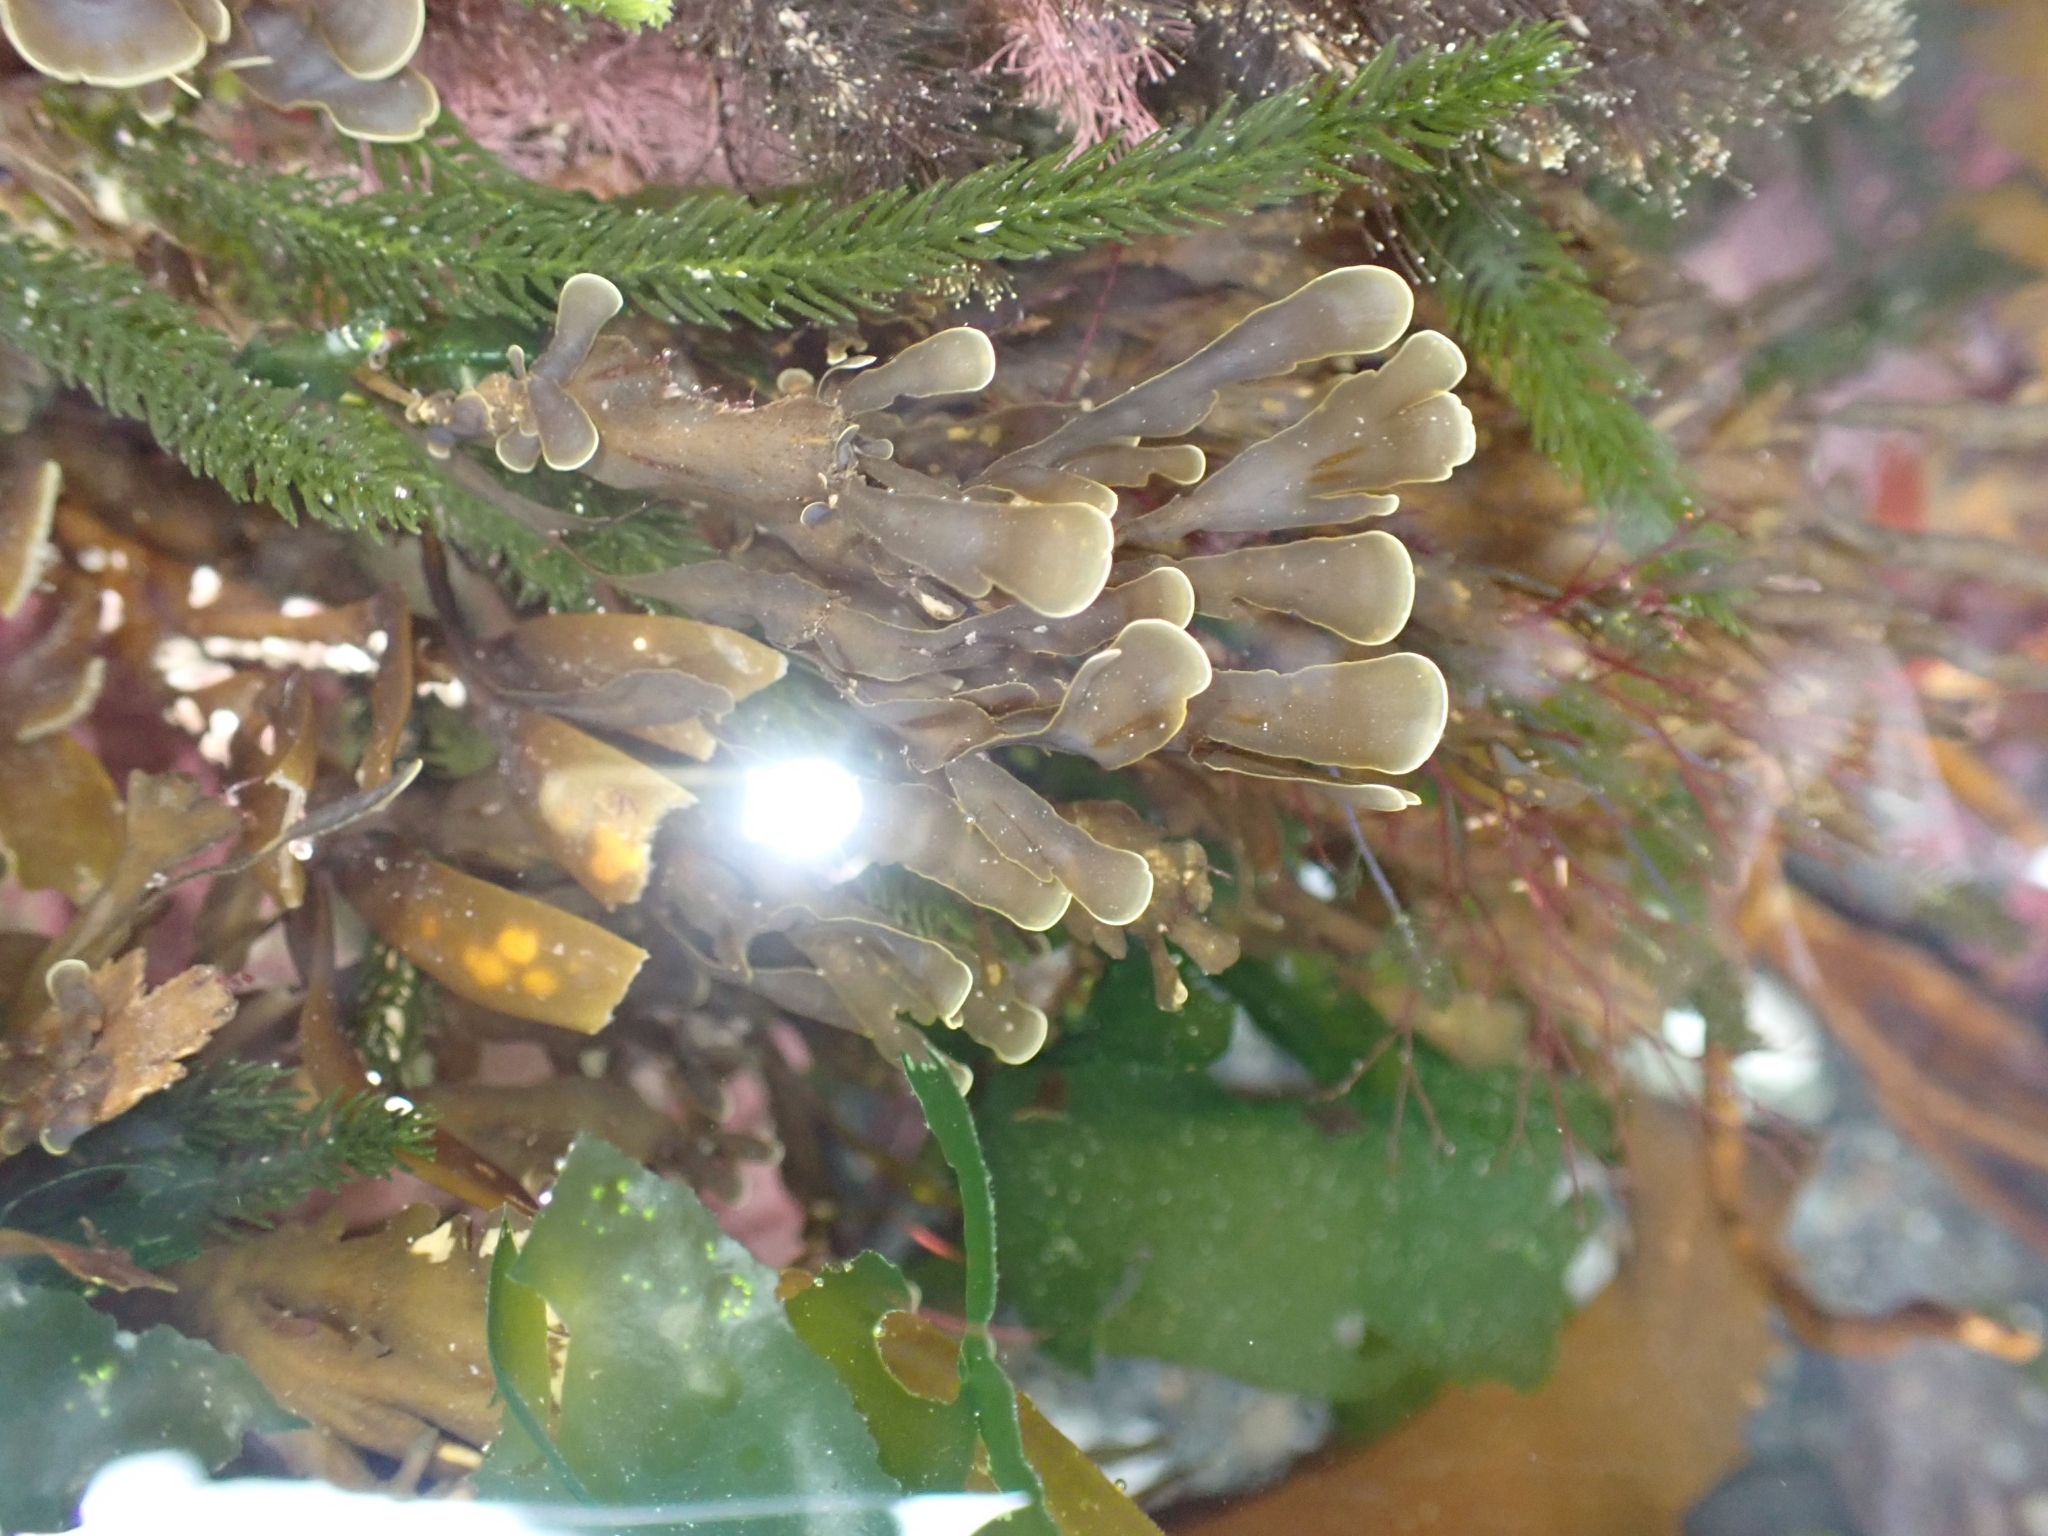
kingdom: Chromista
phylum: Ochrophyta
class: Phaeophyceae
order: Dictyotales
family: Dictyotaceae
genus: Zonaria
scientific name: Zonaria turneriana
